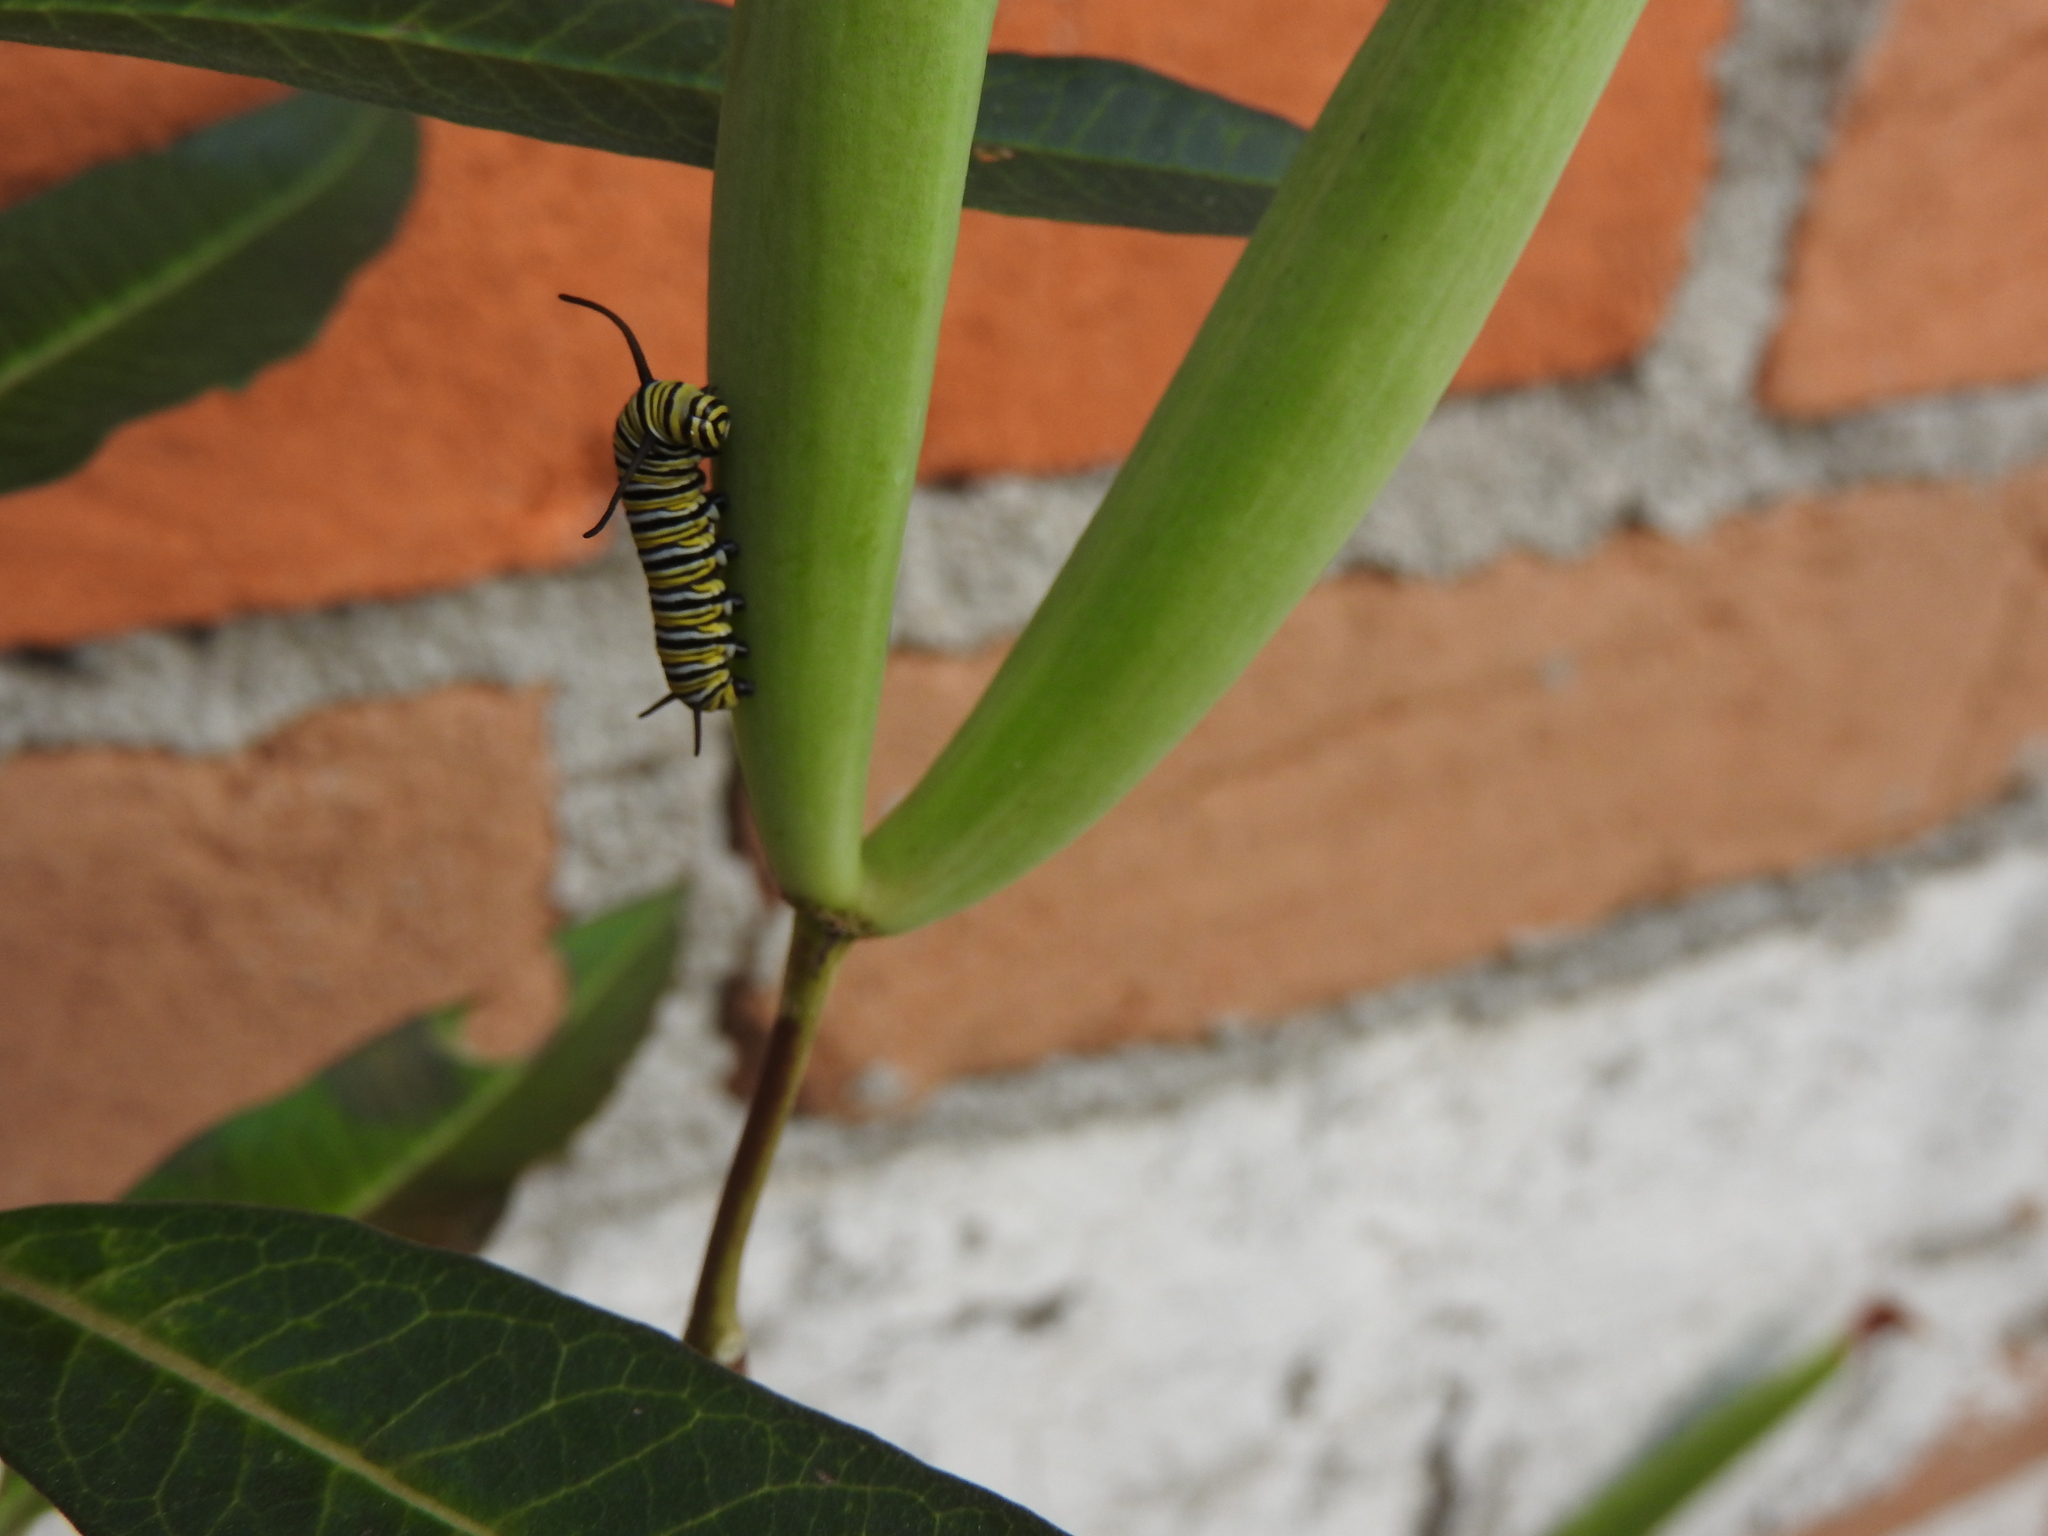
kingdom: Animalia
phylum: Arthropoda
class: Insecta
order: Lepidoptera
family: Nymphalidae
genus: Danaus
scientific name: Danaus plexippus
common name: Monarch
